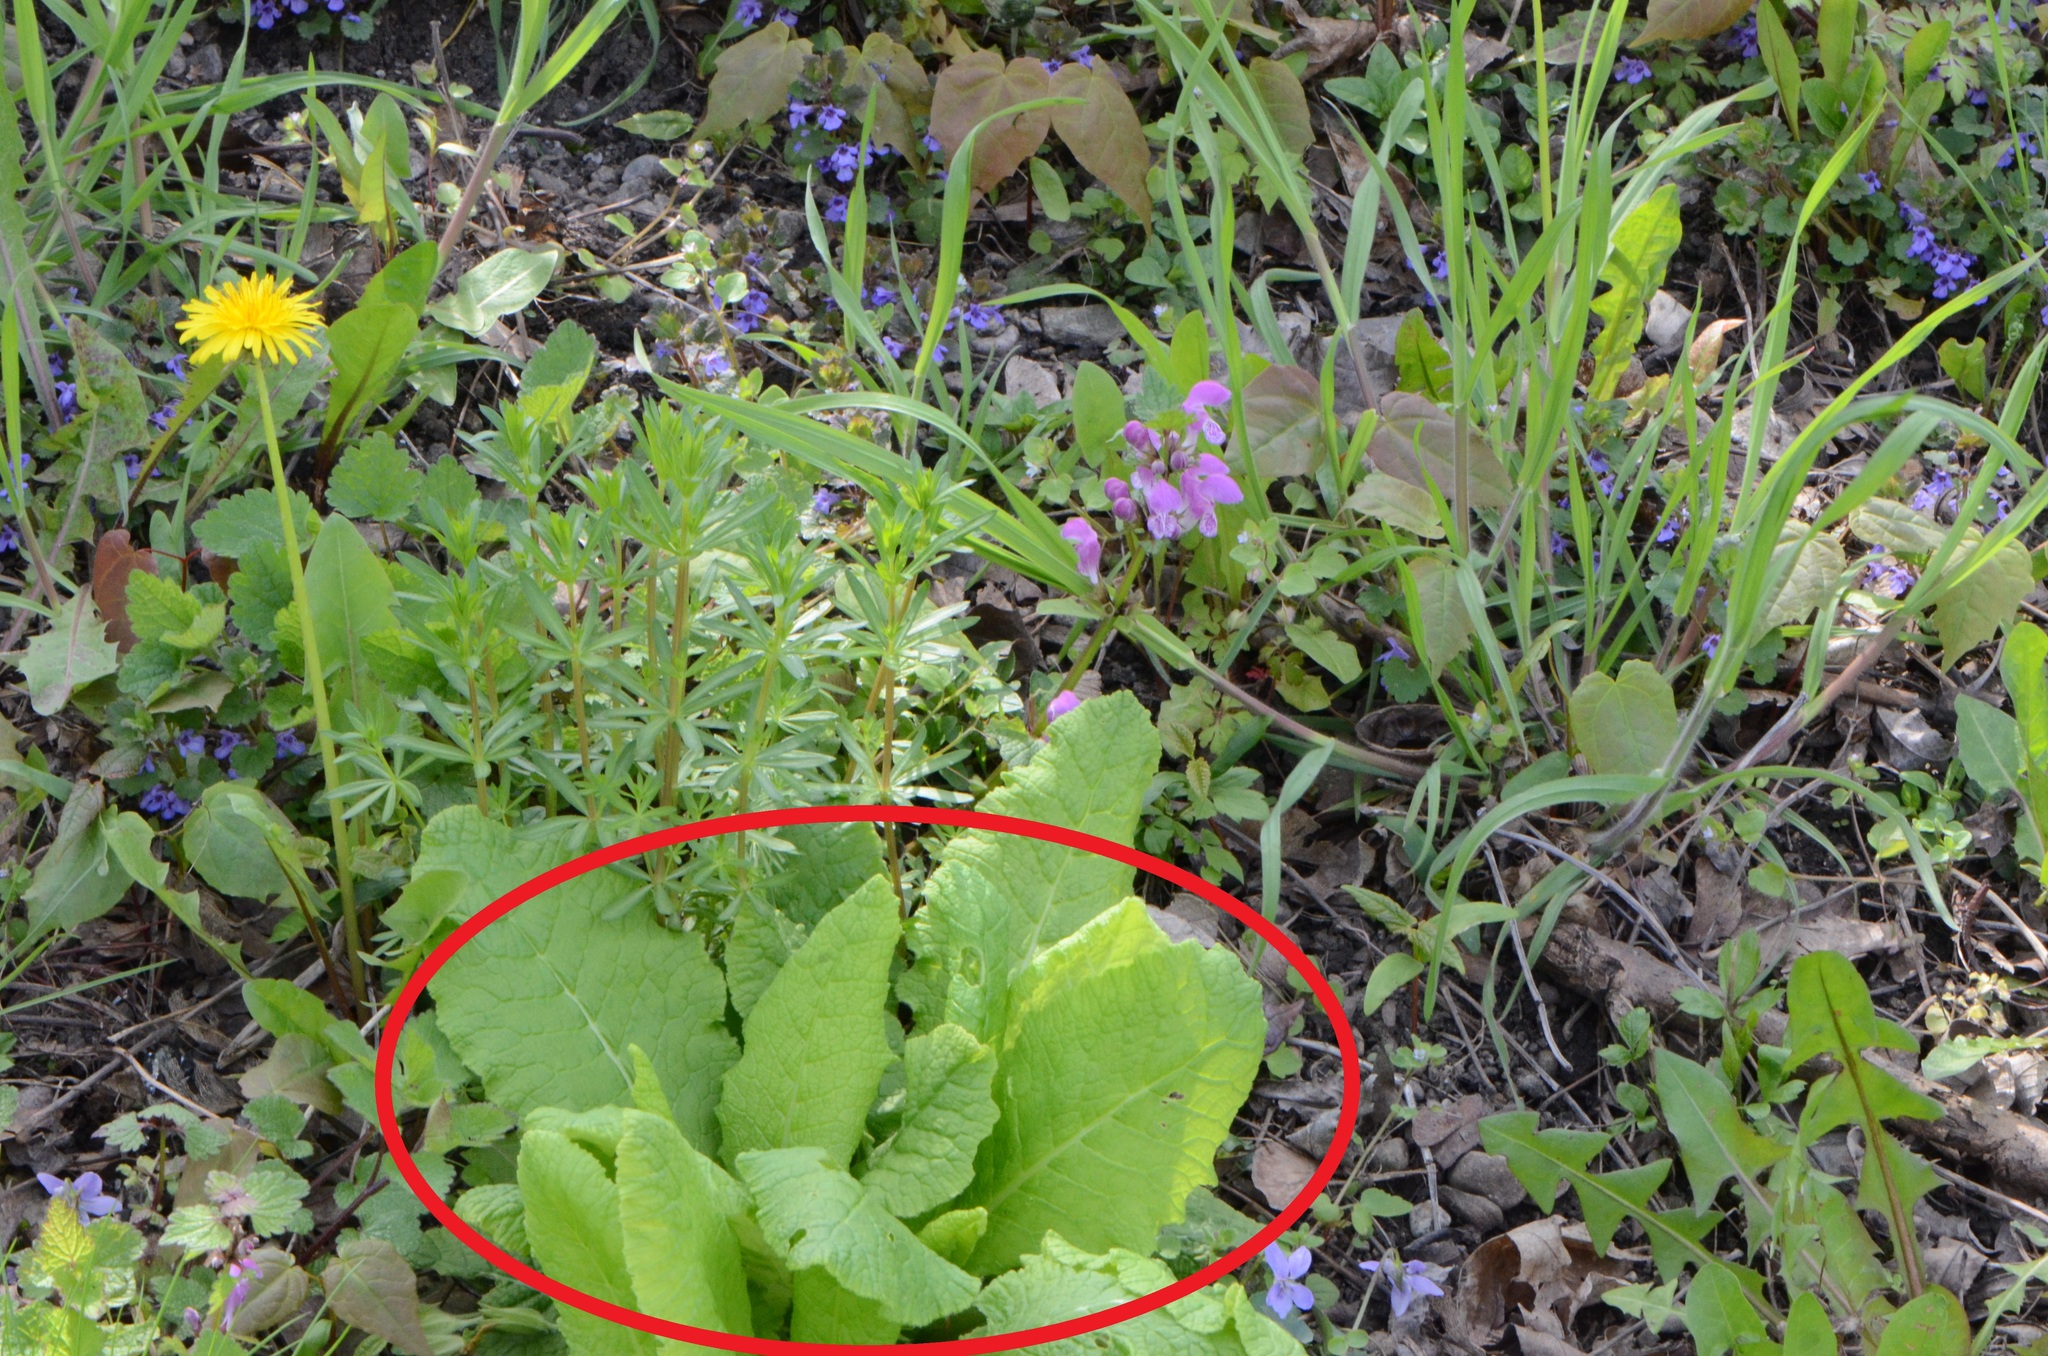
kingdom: Plantae
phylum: Tracheophyta
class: Magnoliopsida
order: Ericales
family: Primulaceae
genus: Primula
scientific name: Primula vulgaris
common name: Primrose
